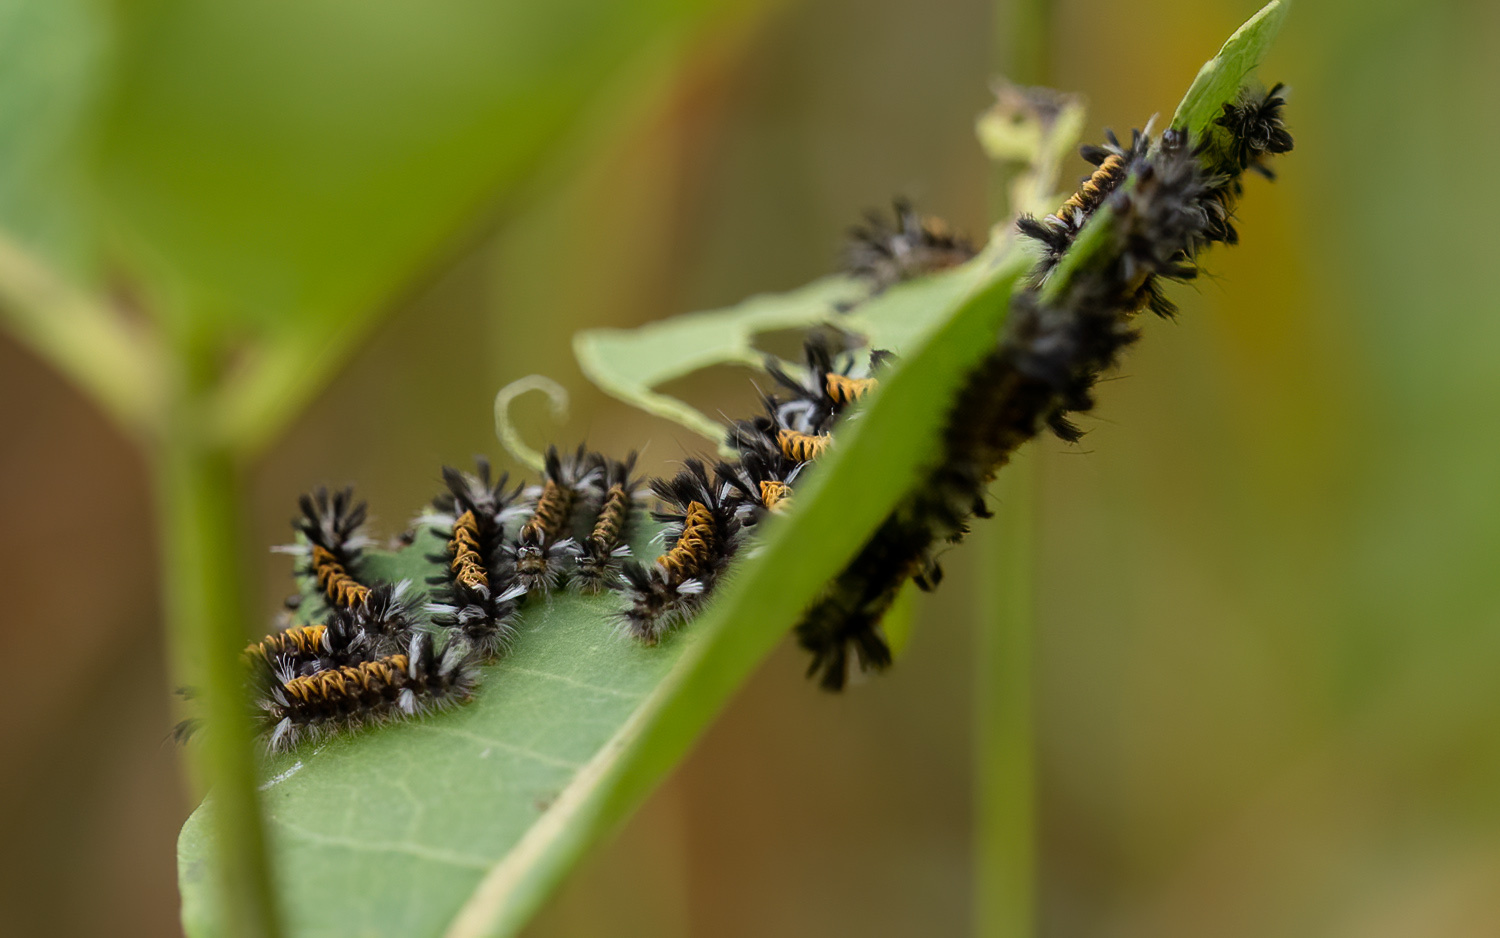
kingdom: Animalia
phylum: Arthropoda
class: Insecta
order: Lepidoptera
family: Erebidae
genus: Euchaetes
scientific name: Euchaetes egle
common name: Milkweed tussock moth
